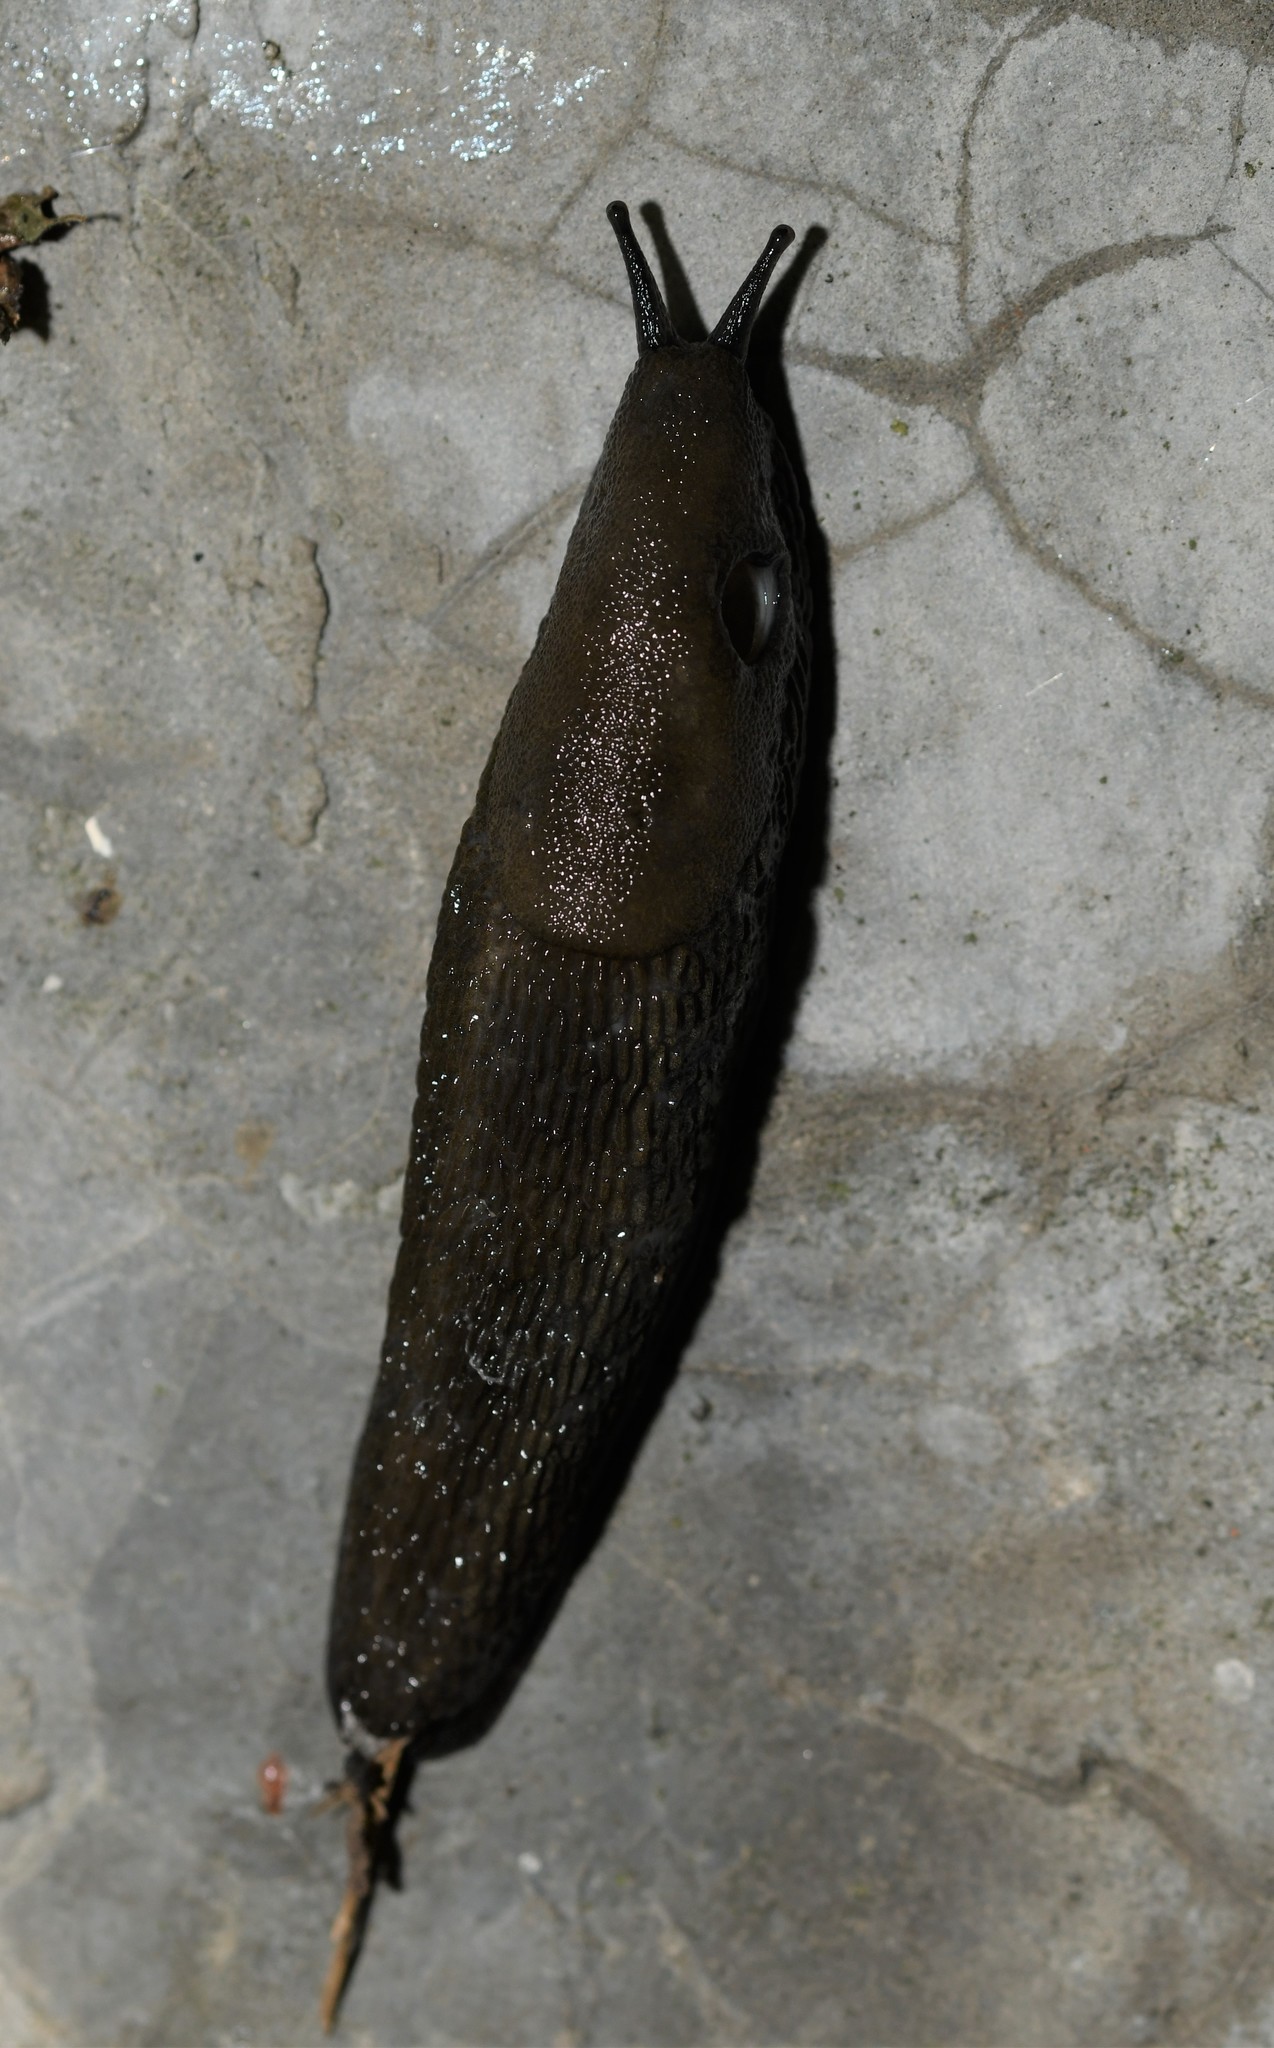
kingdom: Animalia
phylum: Mollusca
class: Gastropoda
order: Stylommatophora
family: Arionidae
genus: Arion
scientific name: Arion vulgaris
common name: Lusitanian slug
